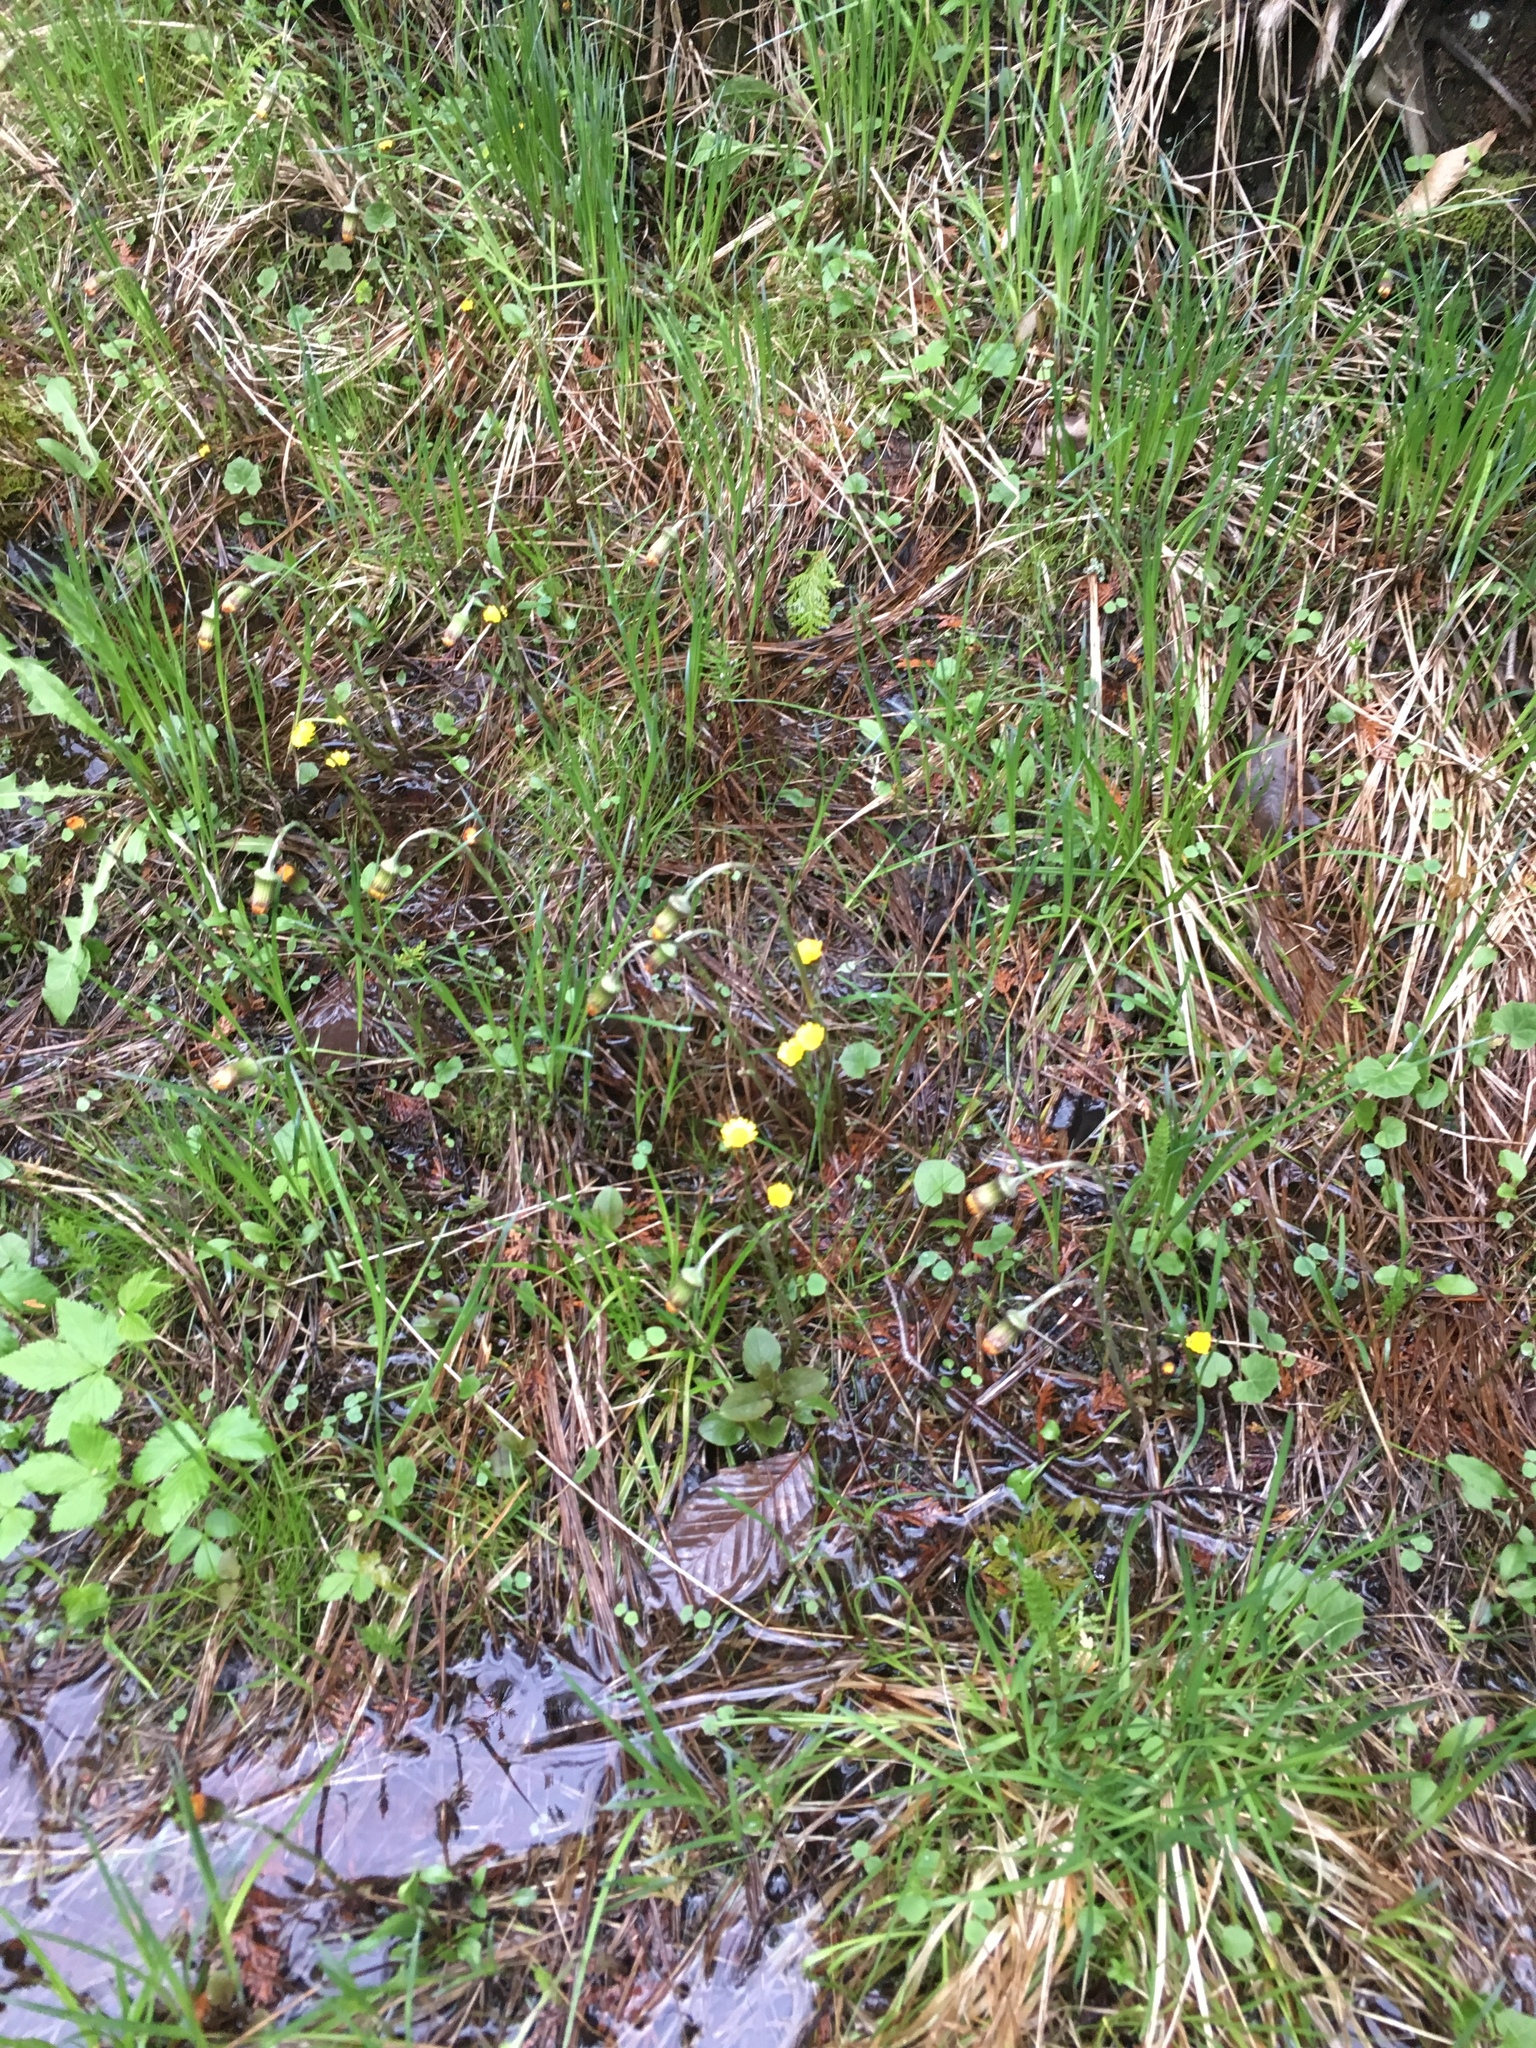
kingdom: Plantae
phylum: Tracheophyta
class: Magnoliopsida
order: Asterales
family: Asteraceae
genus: Tussilago
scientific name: Tussilago farfara
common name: Coltsfoot
